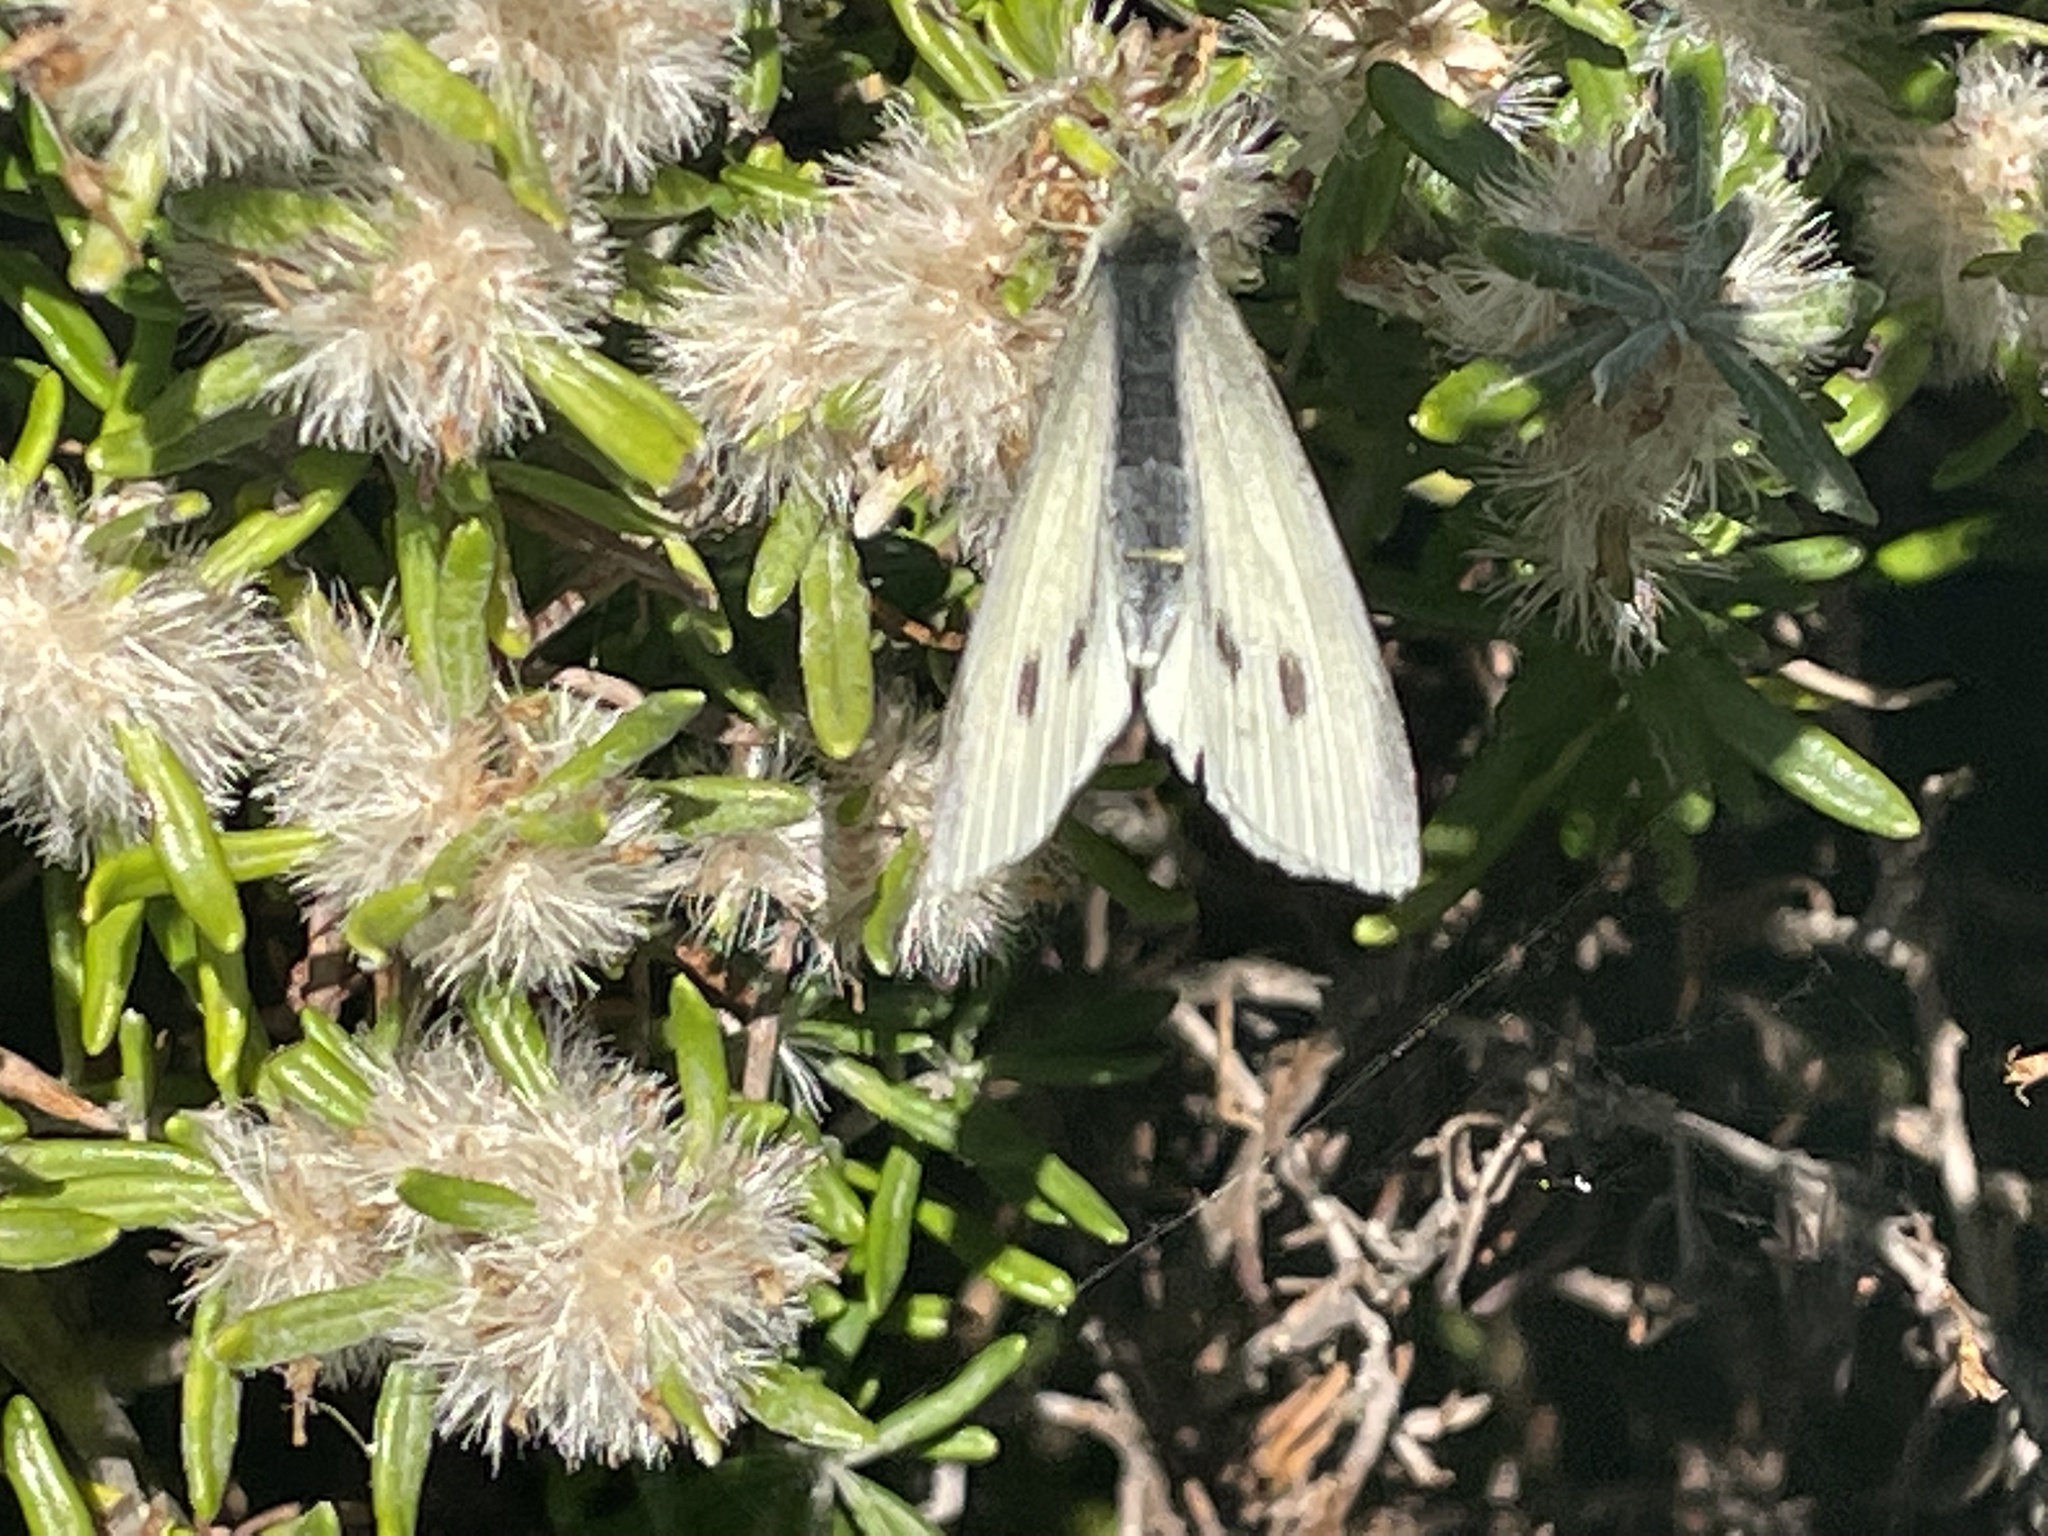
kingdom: Animalia
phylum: Arthropoda
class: Insecta
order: Lepidoptera
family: Pieridae
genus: Pieris
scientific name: Pieris rapae
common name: Small white
